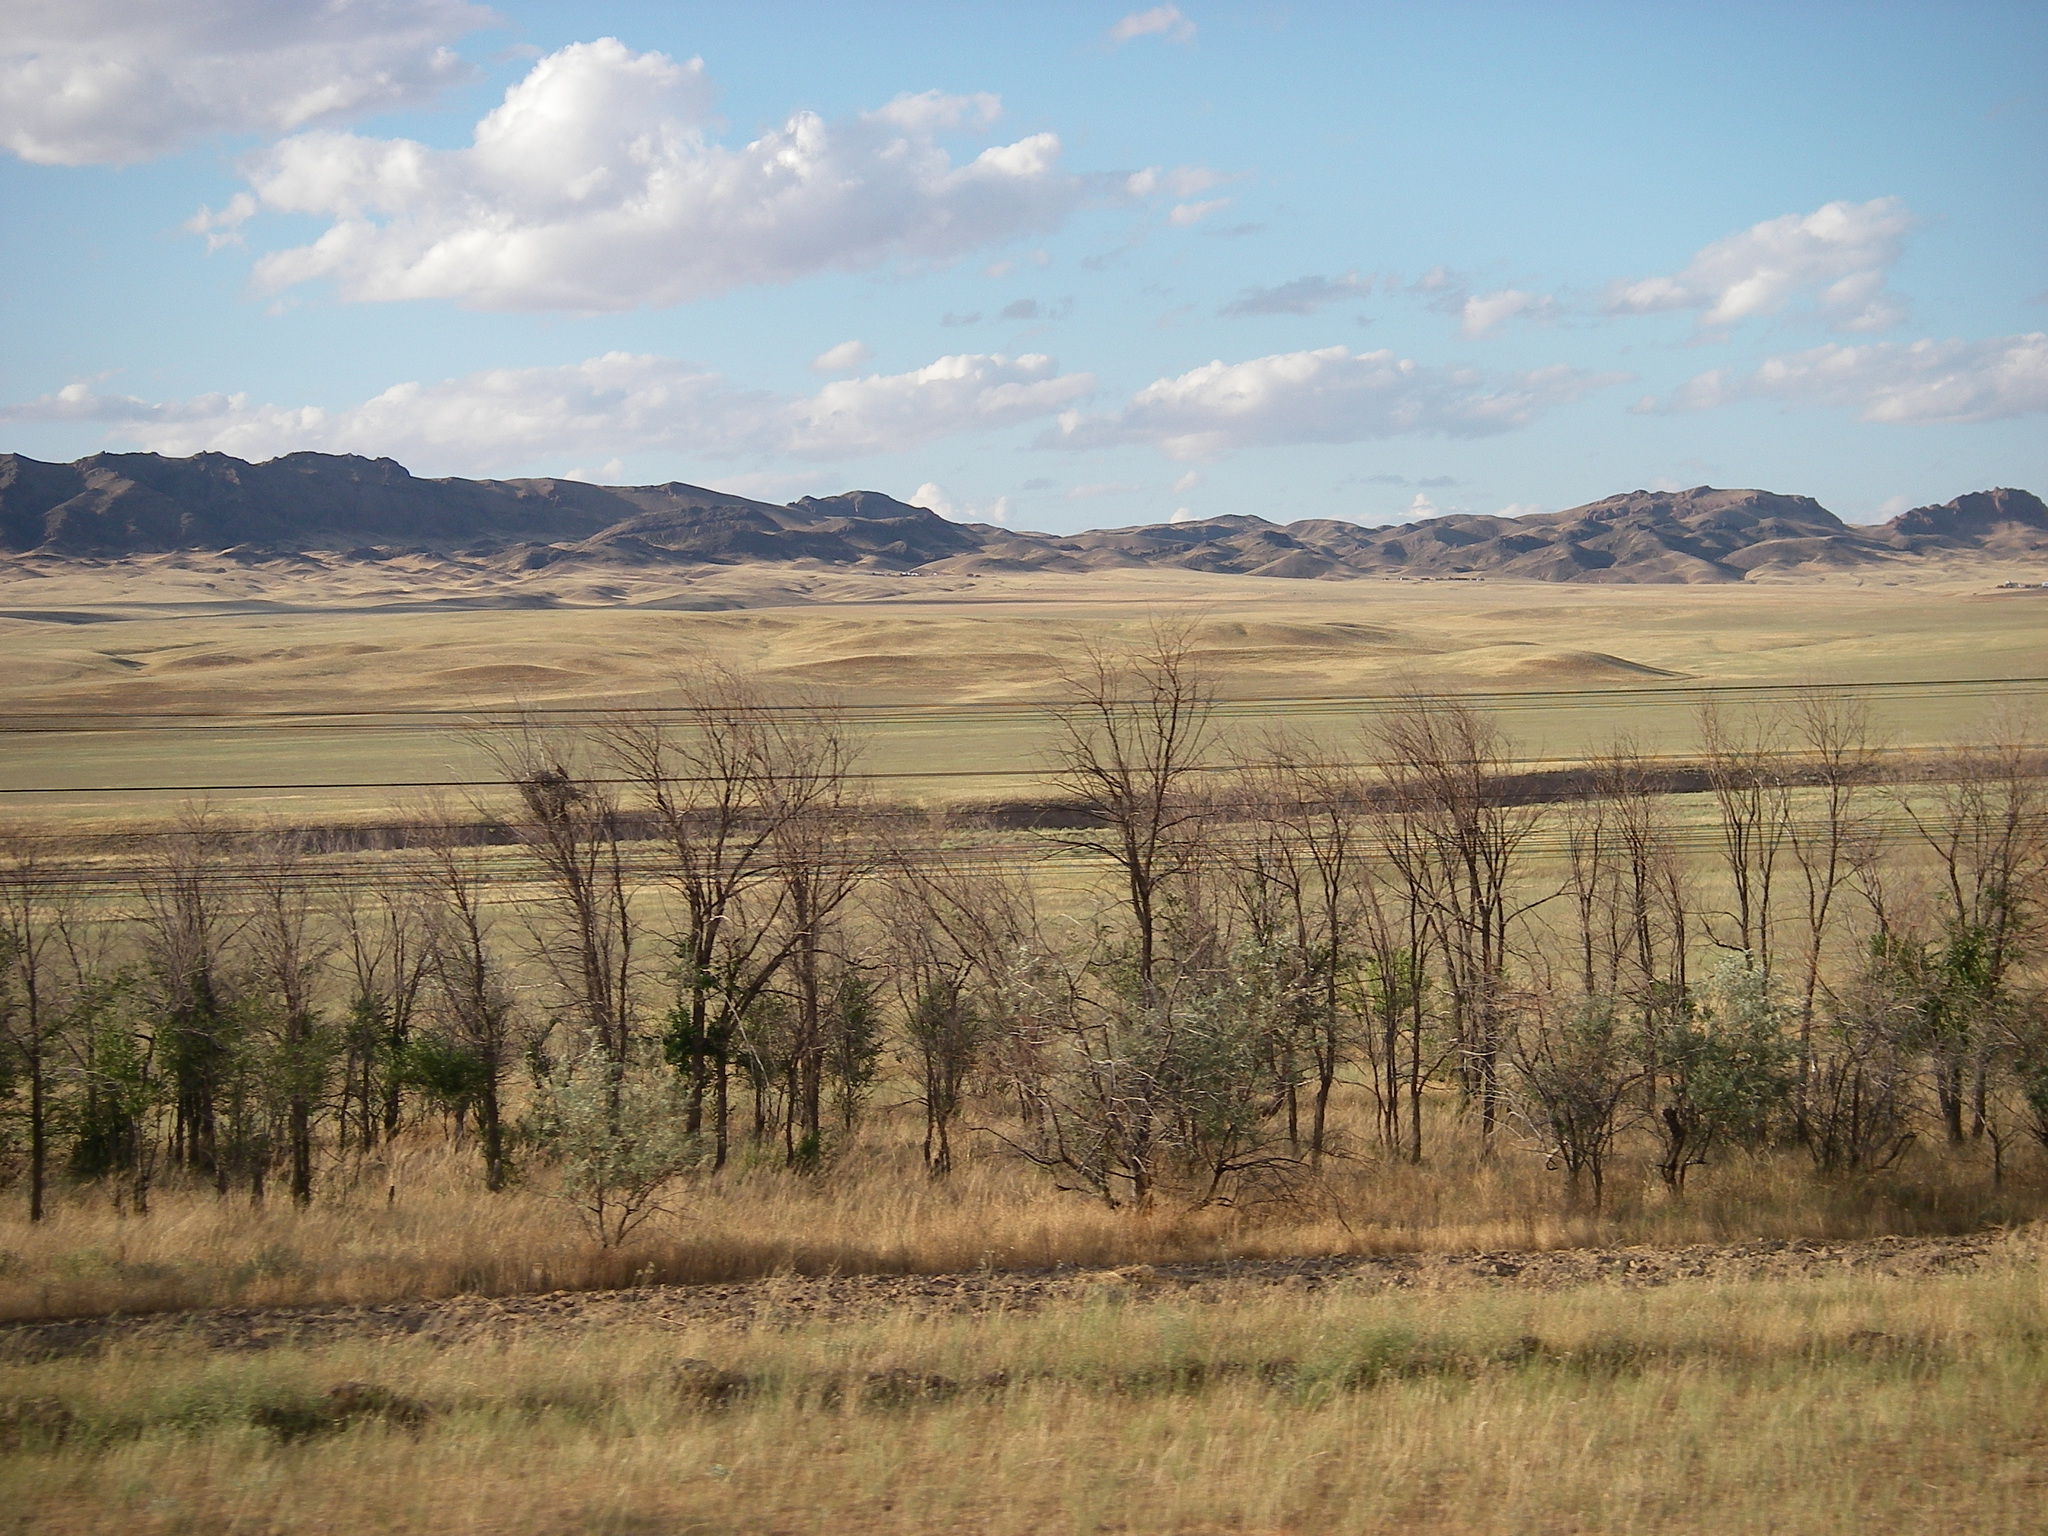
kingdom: Plantae
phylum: Tracheophyta
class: Magnoliopsida
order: Rosales
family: Ulmaceae
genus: Ulmus
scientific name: Ulmus pumila
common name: Siberian elm
